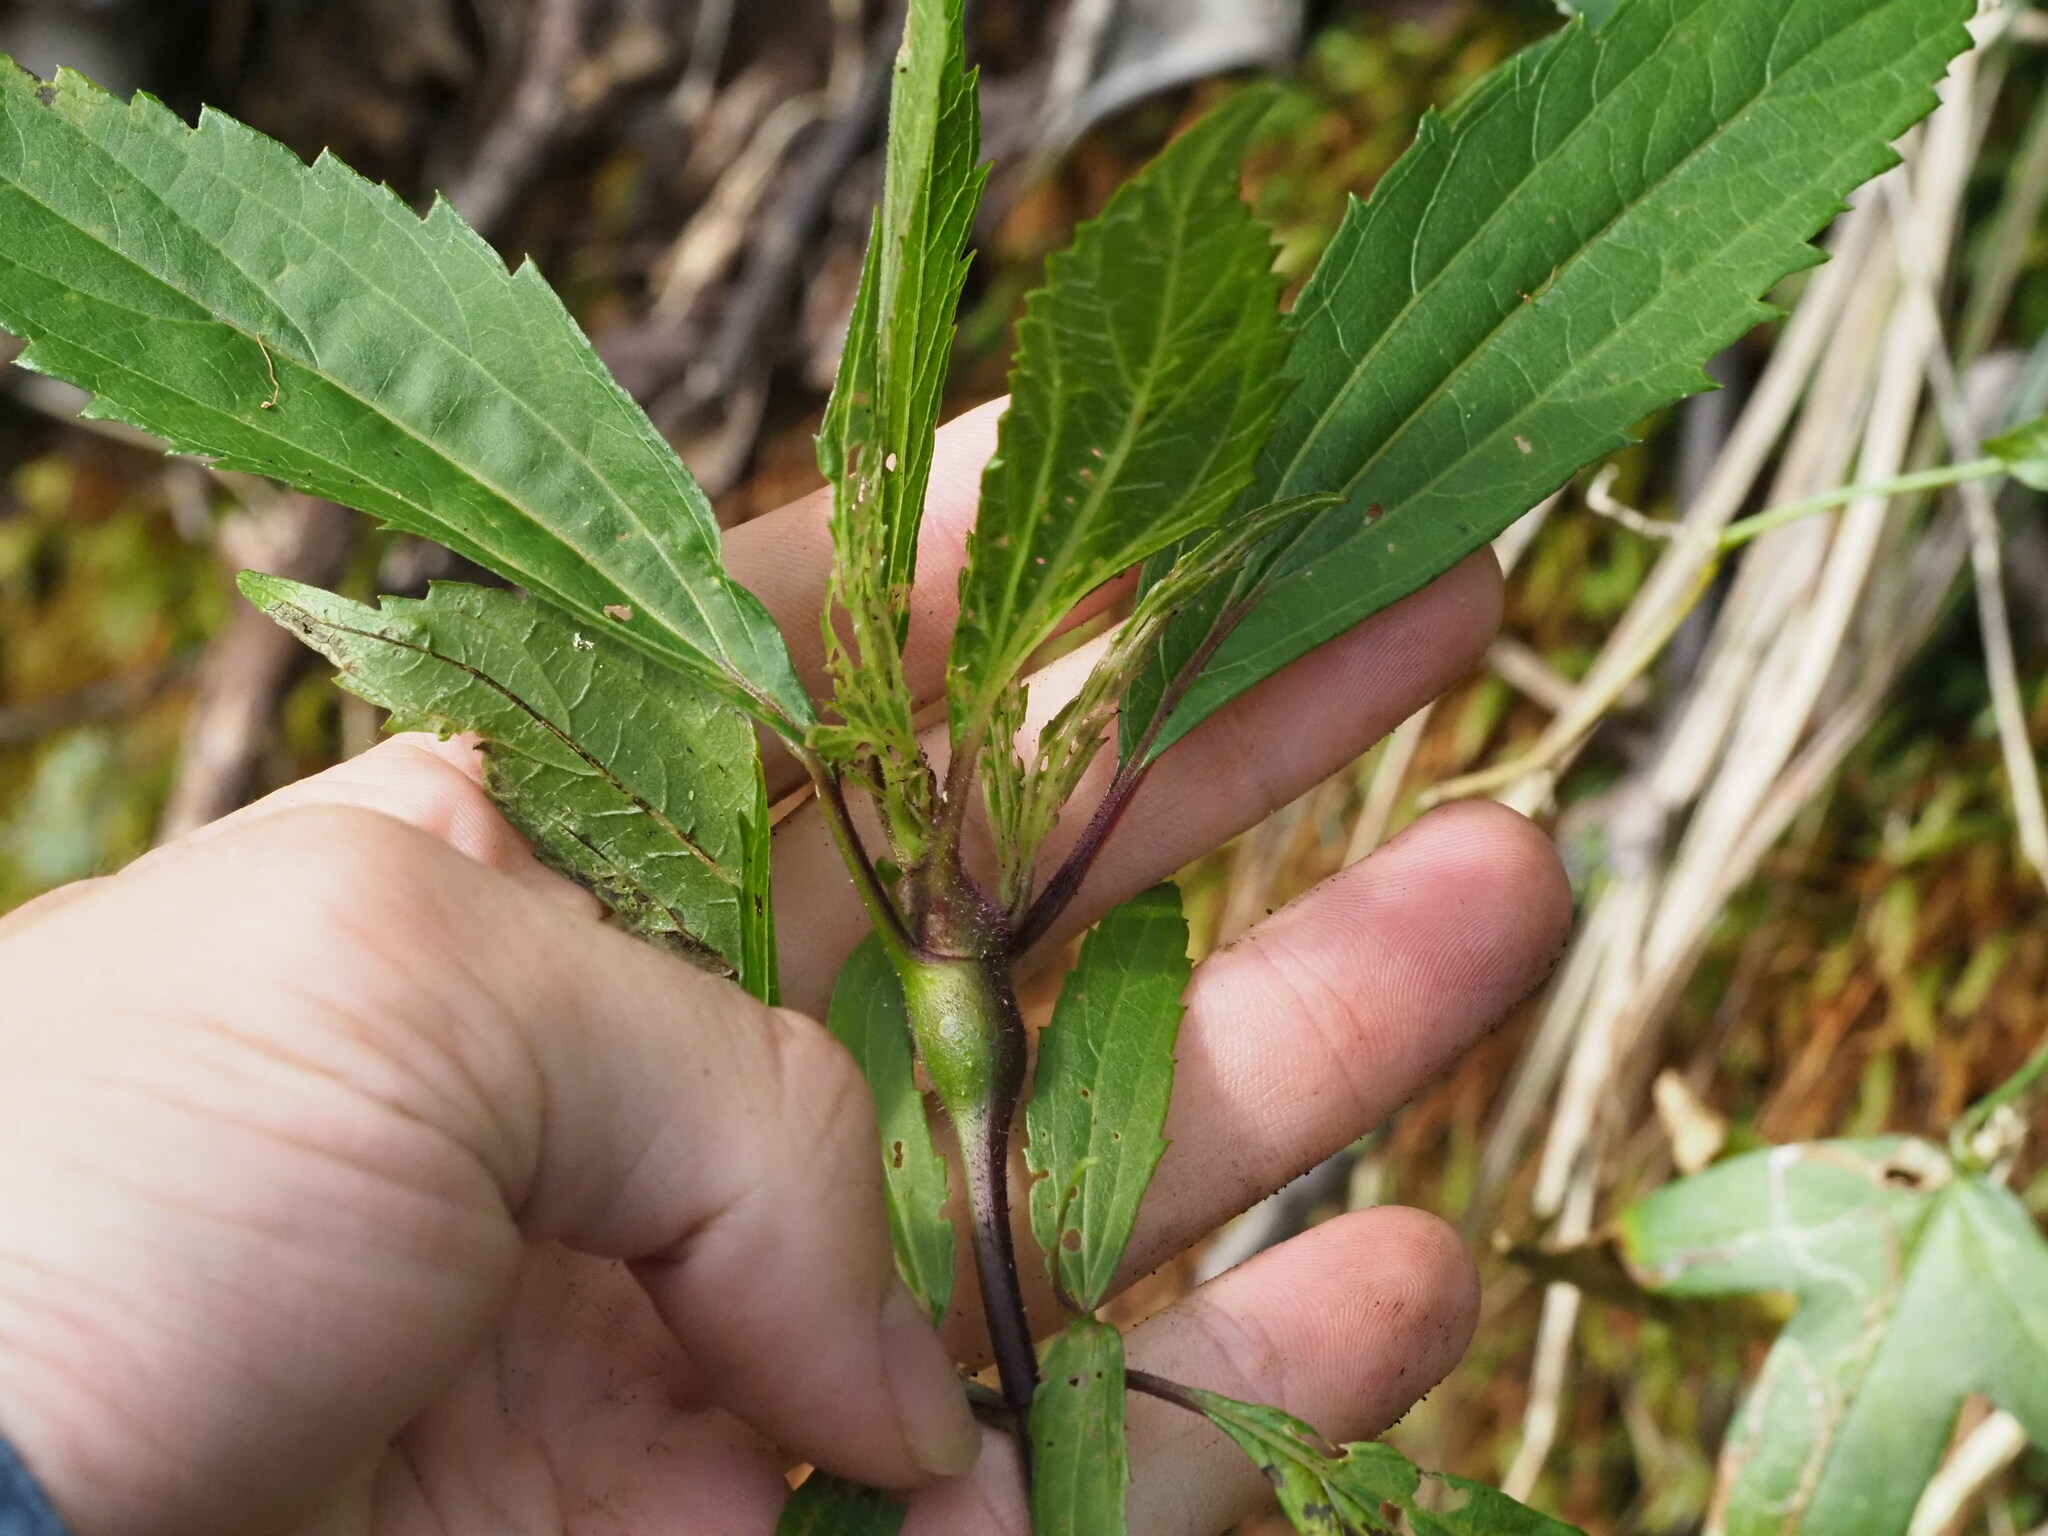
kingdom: Animalia
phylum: Arthropoda
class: Insecta
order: Diptera
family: Tephritidae
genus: Procecidochares
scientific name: Procecidochares alani
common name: Fruit fly
